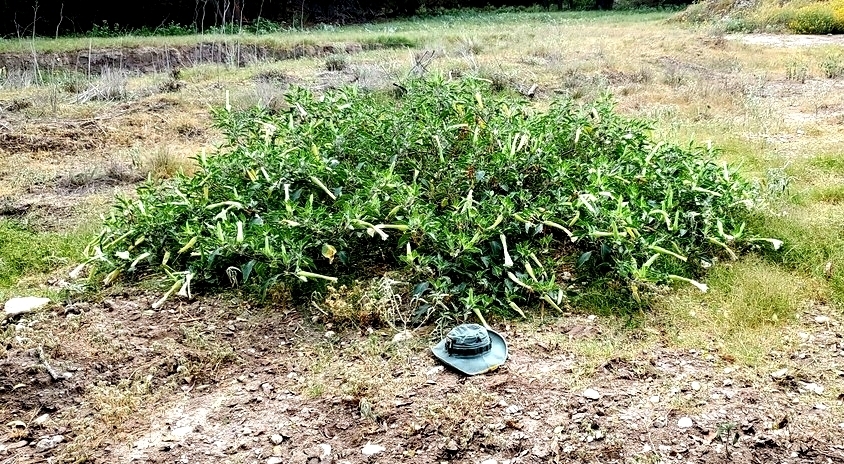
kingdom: Plantae
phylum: Tracheophyta
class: Magnoliopsida
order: Solanales
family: Solanaceae
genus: Datura
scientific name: Datura innoxia
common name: Downy thorn-apple
